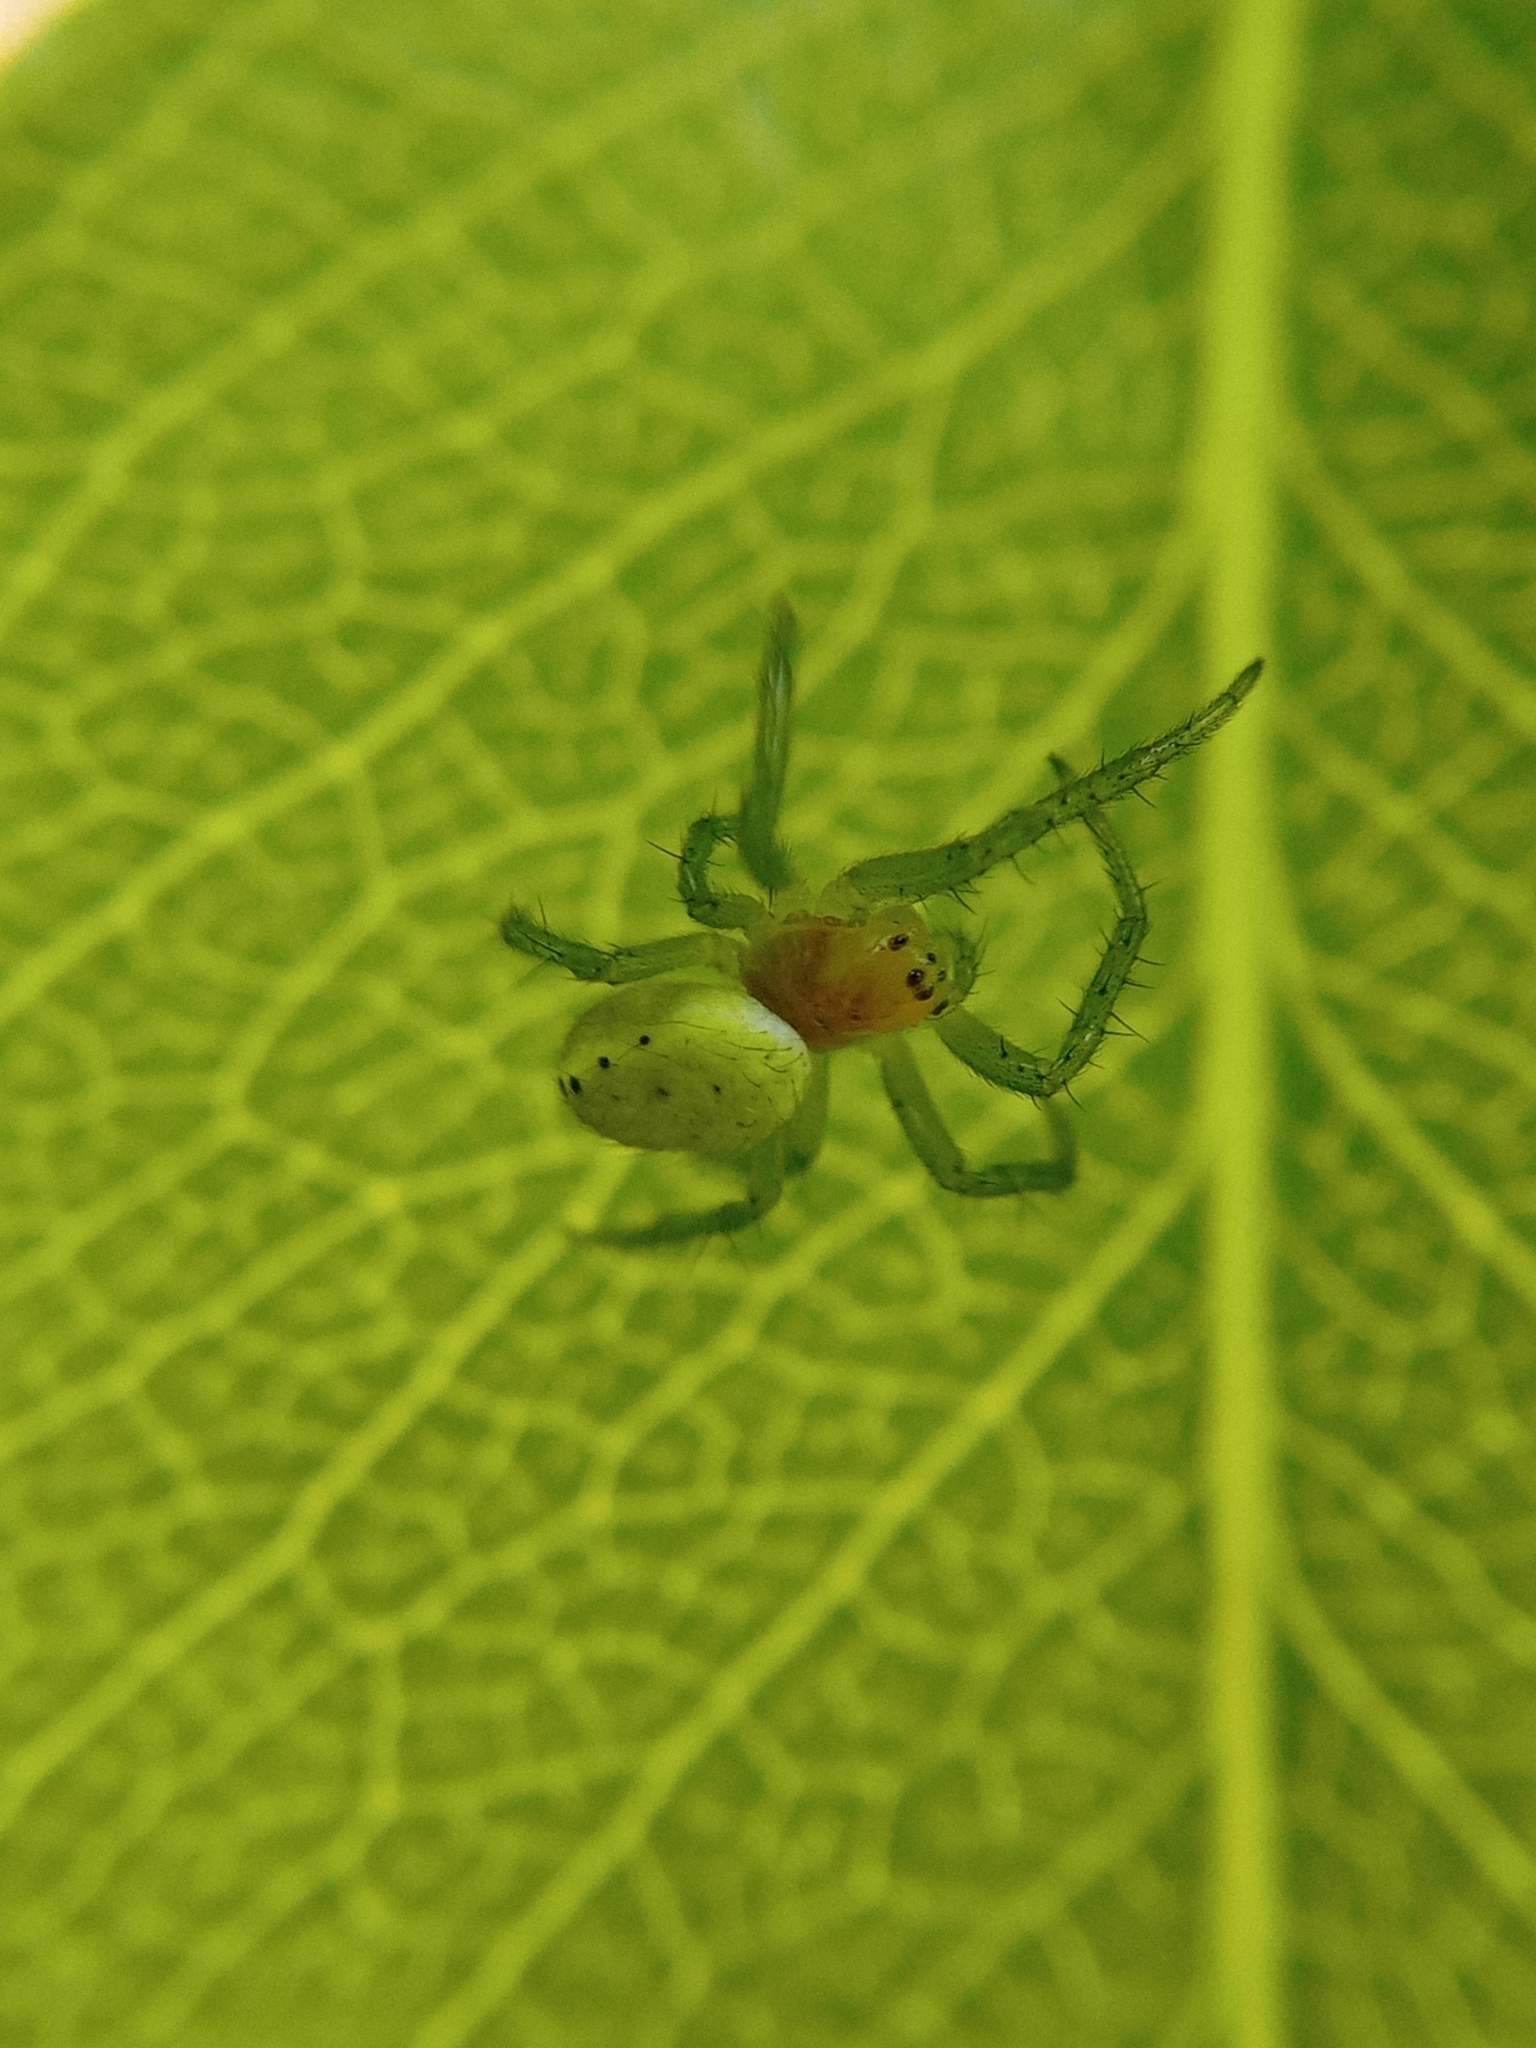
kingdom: Animalia
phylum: Arthropoda
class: Arachnida
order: Araneae
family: Araneidae
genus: Araniella
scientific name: Araniella
